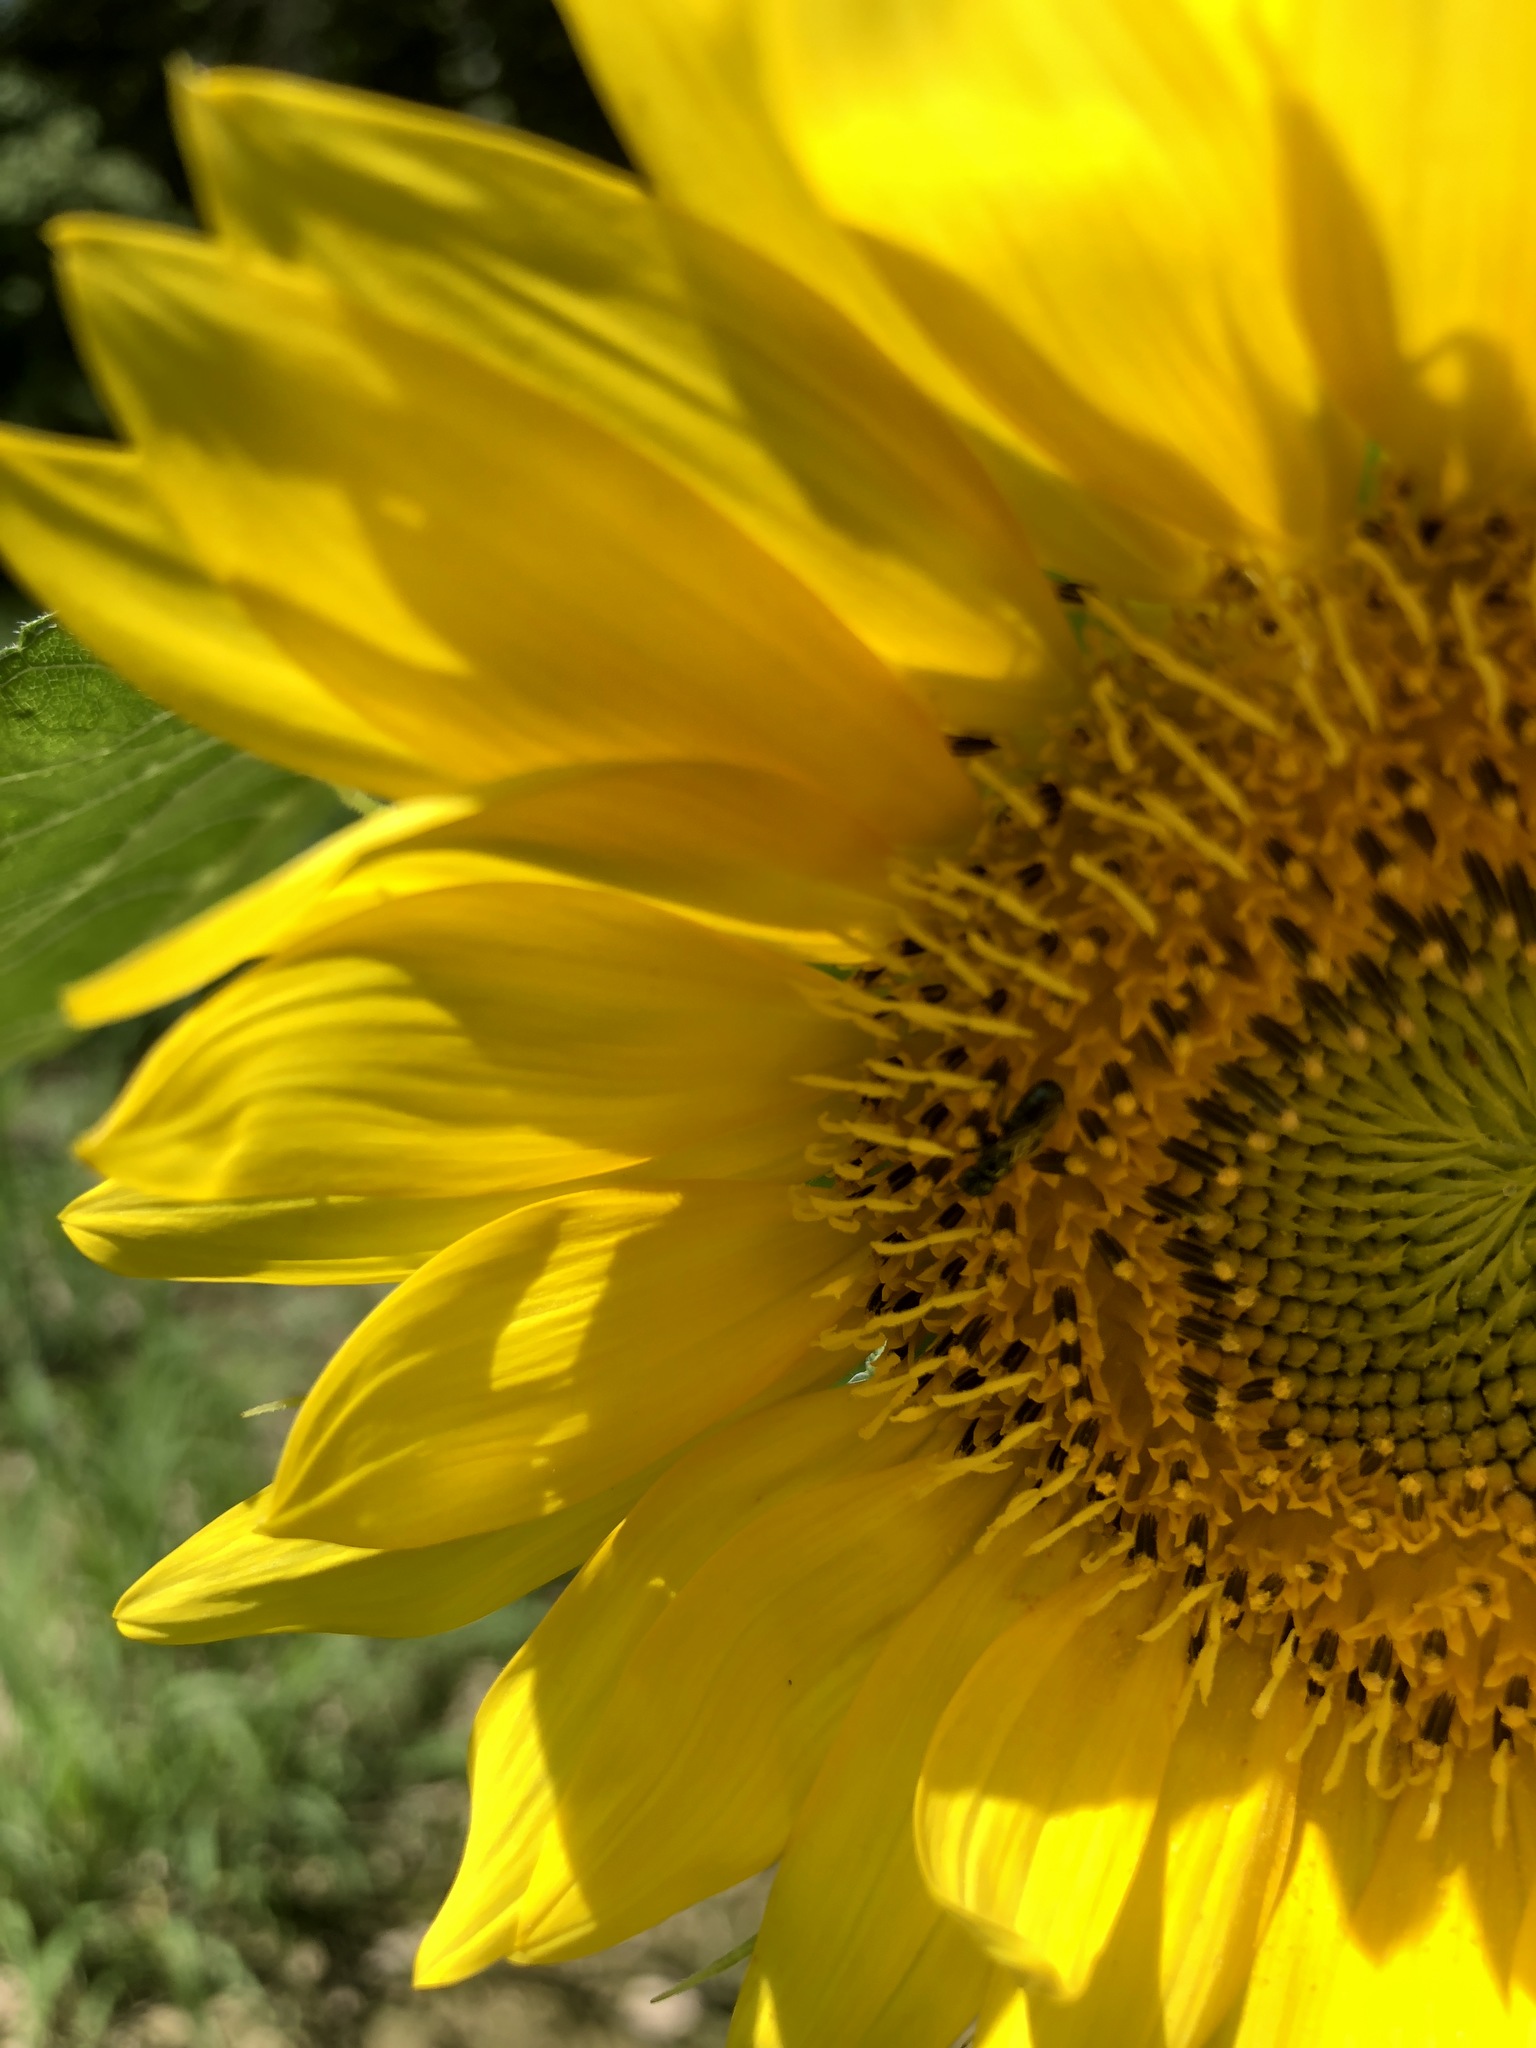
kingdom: Animalia
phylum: Arthropoda
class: Insecta
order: Hymenoptera
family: Apidae
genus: Zadontomerus
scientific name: Zadontomerus
